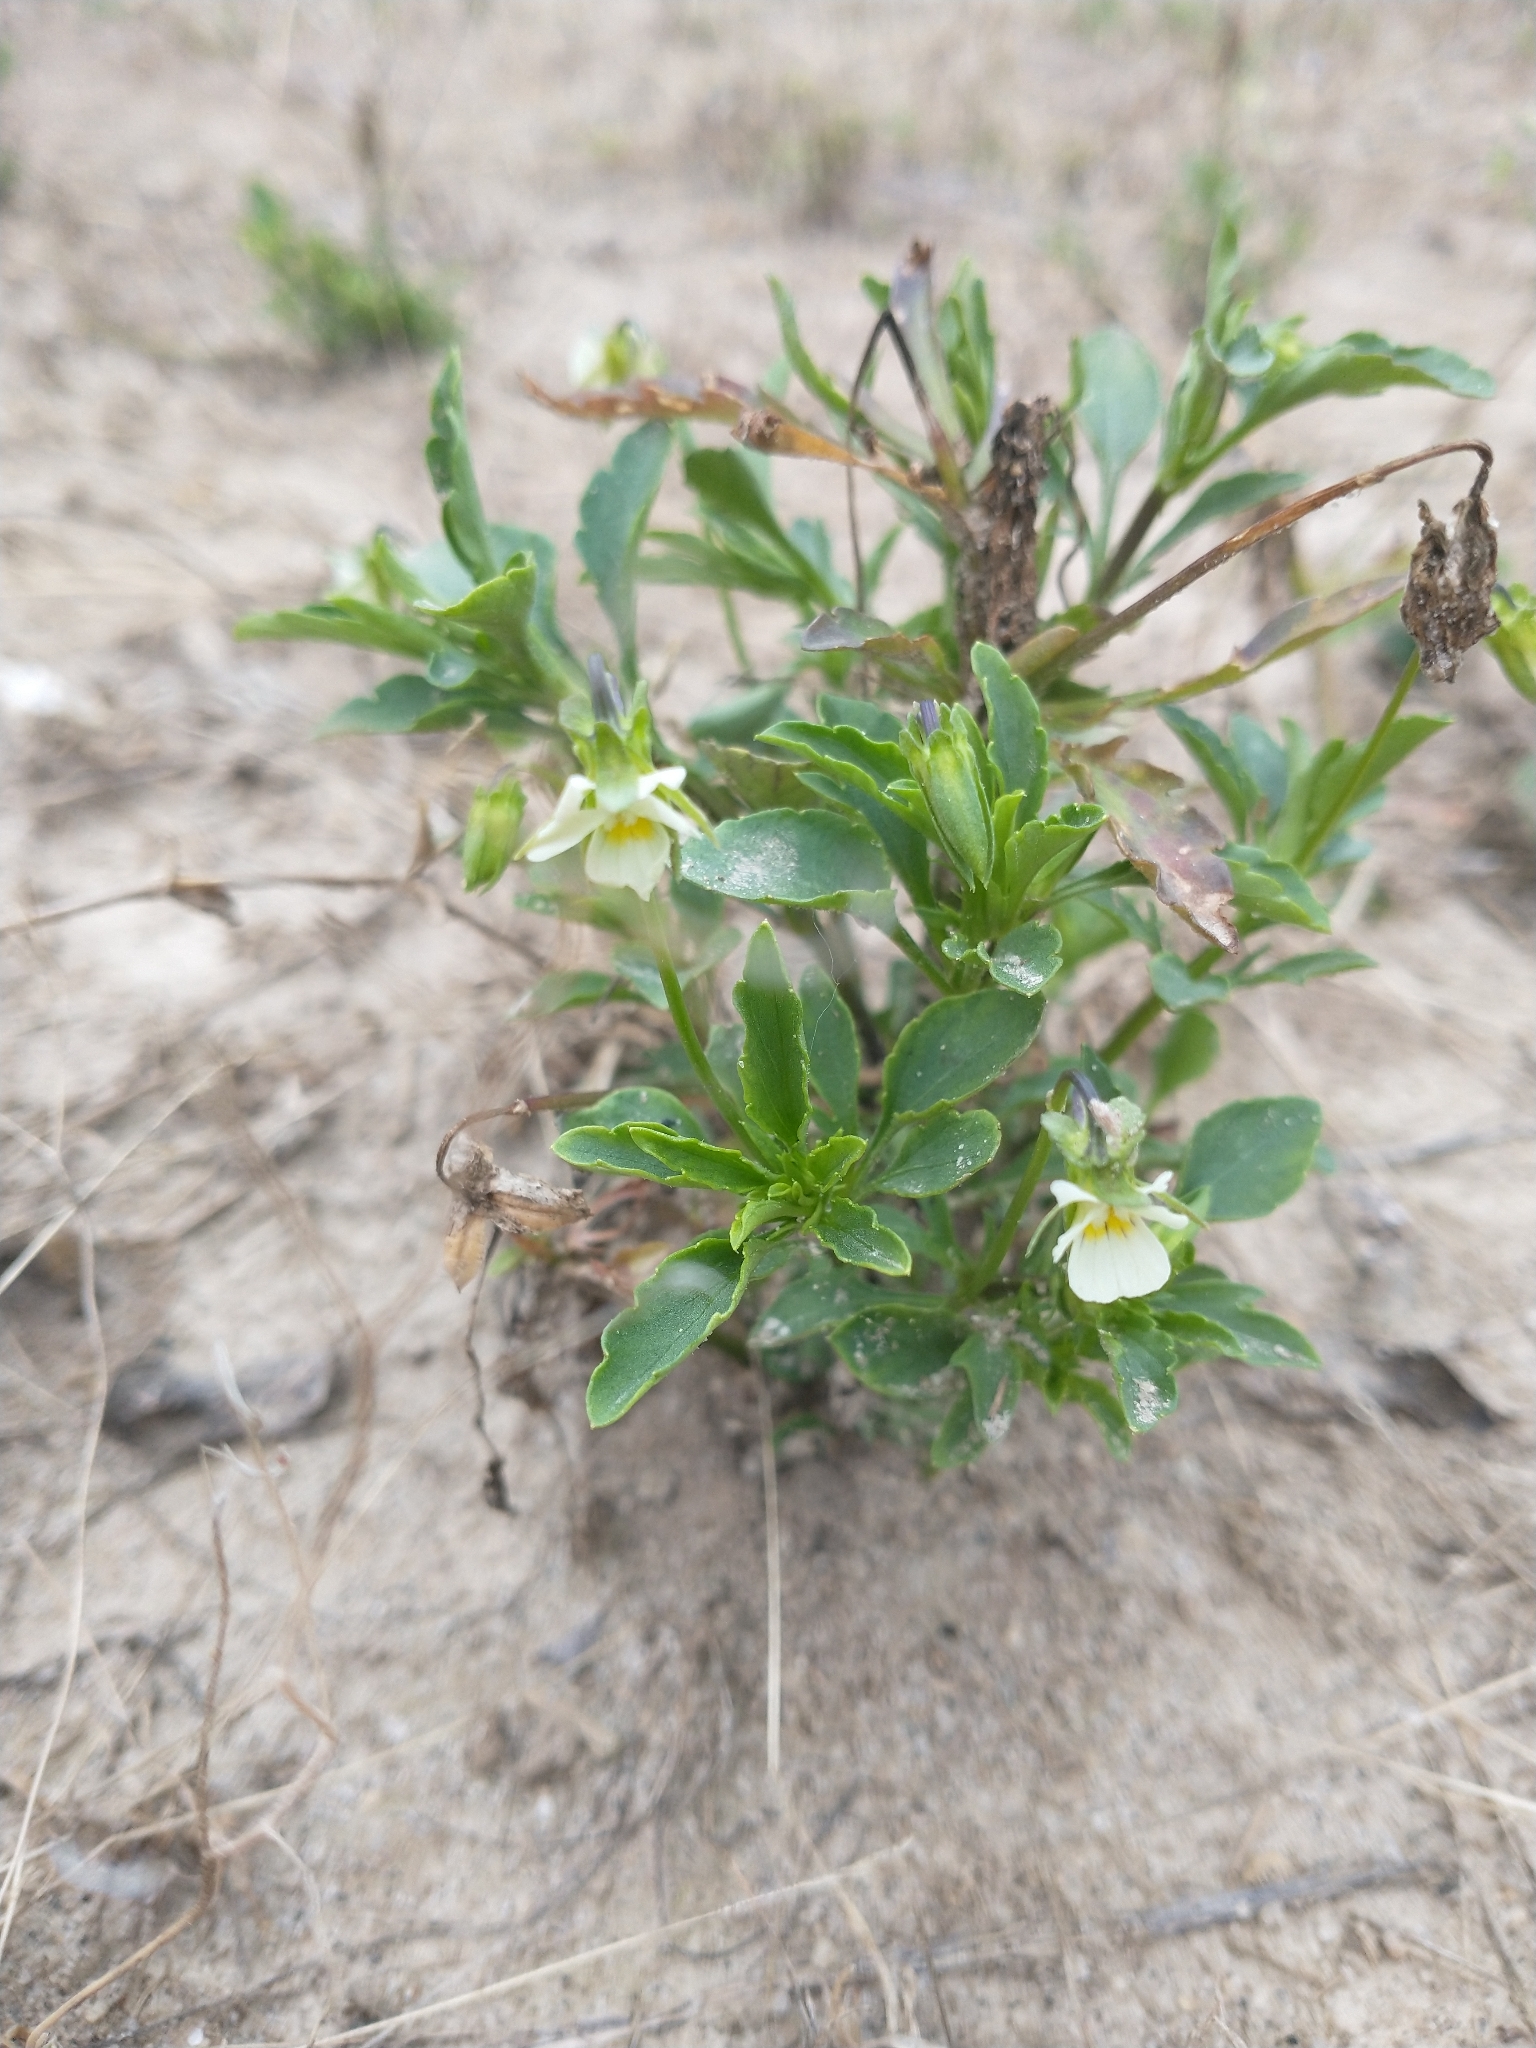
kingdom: Plantae
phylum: Tracheophyta
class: Magnoliopsida
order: Malpighiales
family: Violaceae
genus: Viola
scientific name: Viola arvensis
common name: Field pansy
